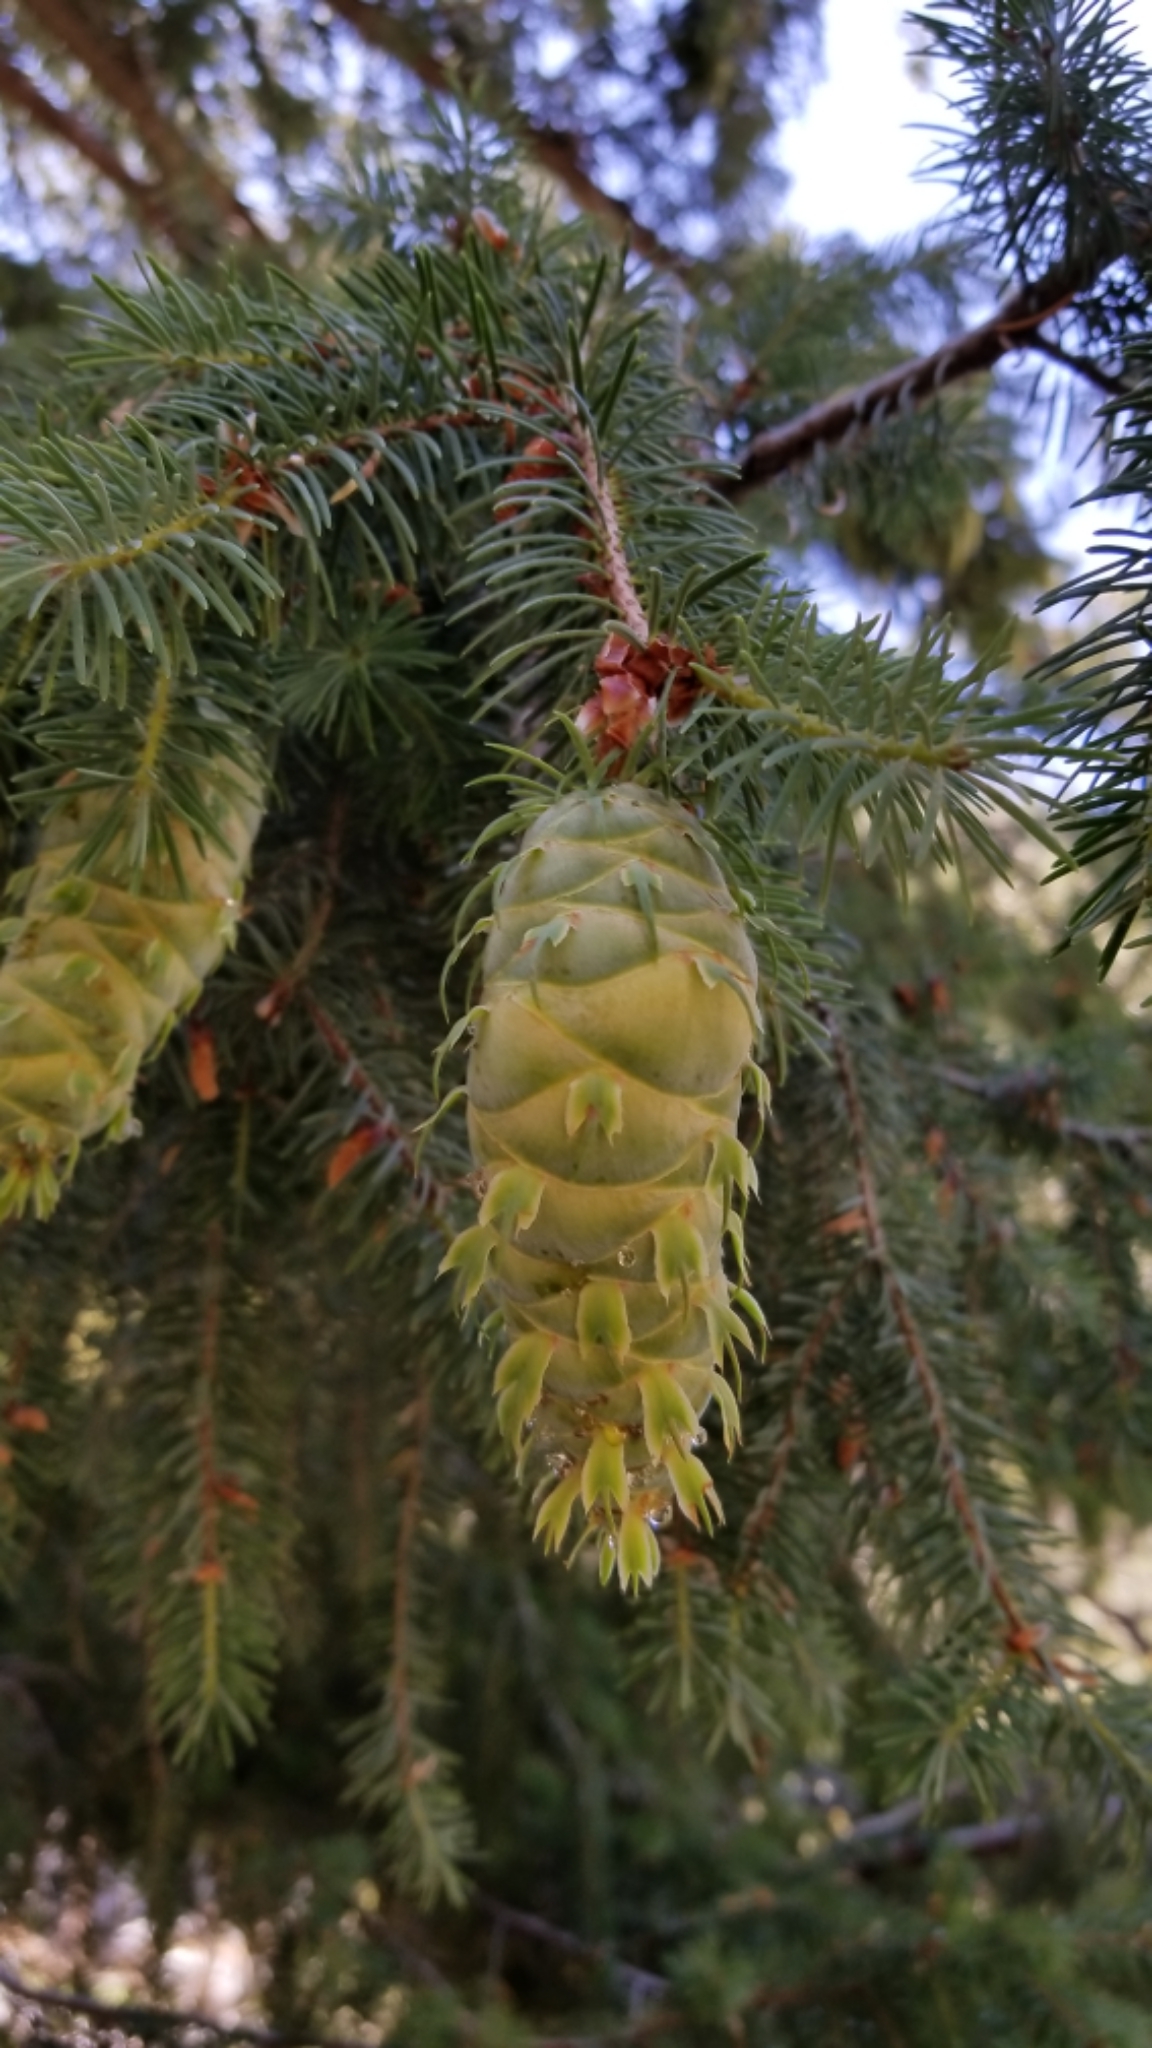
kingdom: Plantae
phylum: Tracheophyta
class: Pinopsida
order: Pinales
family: Pinaceae
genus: Pseudotsuga
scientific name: Pseudotsuga macrocarpa
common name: Big-cone douglas-fir
